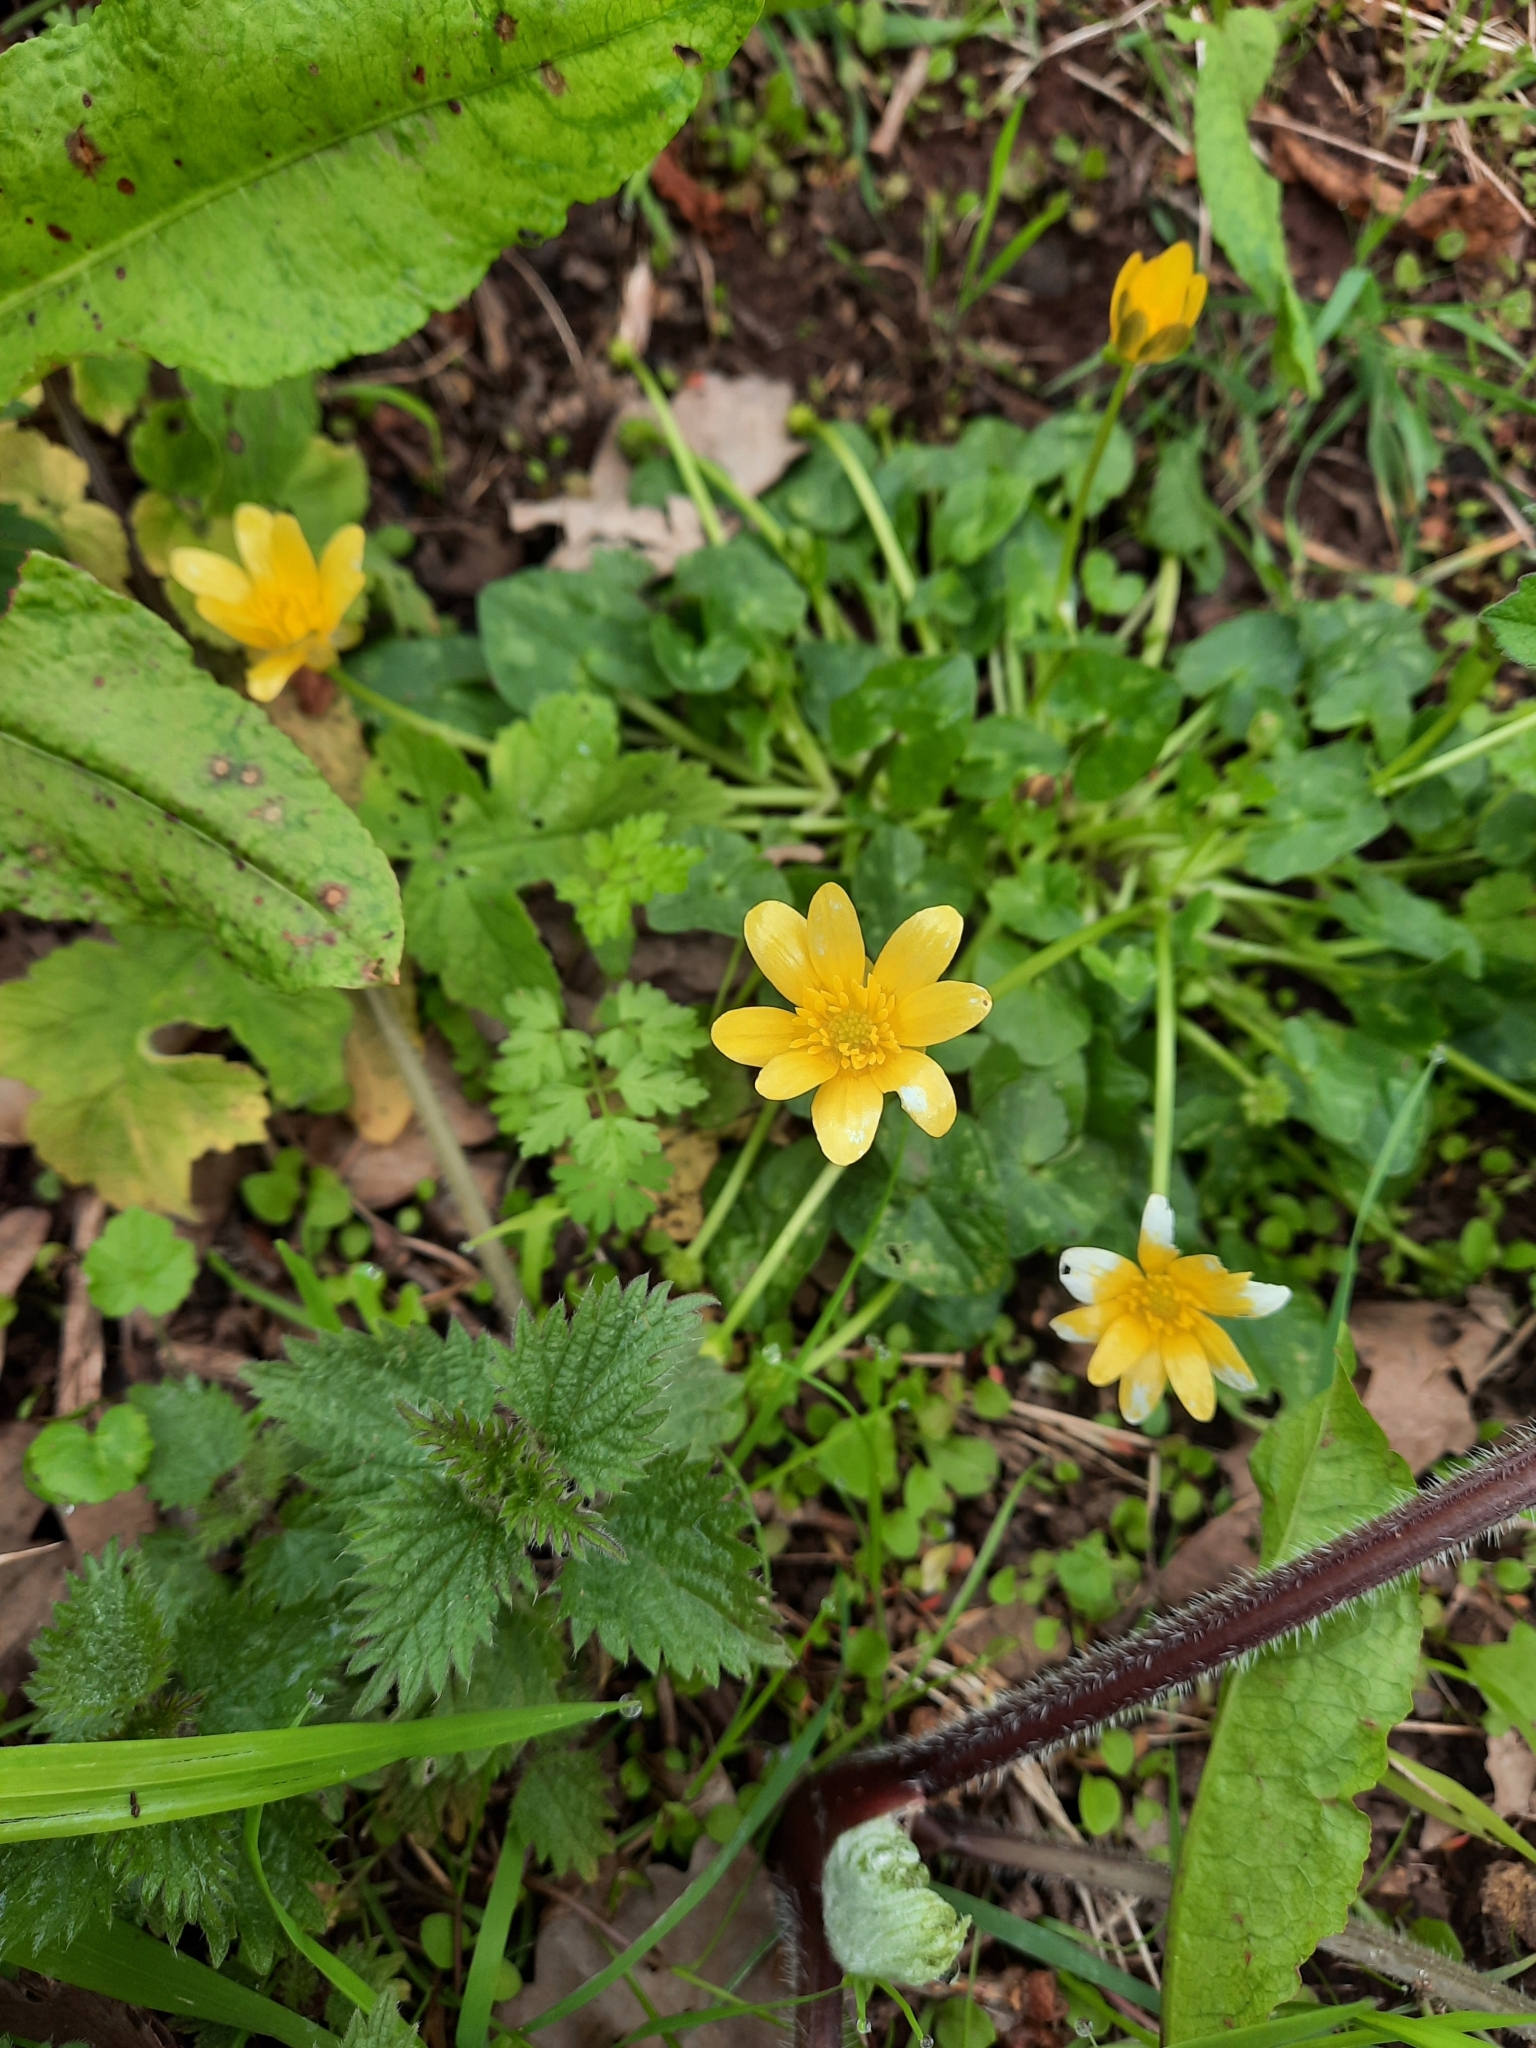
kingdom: Plantae
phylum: Tracheophyta
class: Magnoliopsida
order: Ranunculales
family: Ranunculaceae
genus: Ficaria
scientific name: Ficaria verna
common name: Lesser celandine
